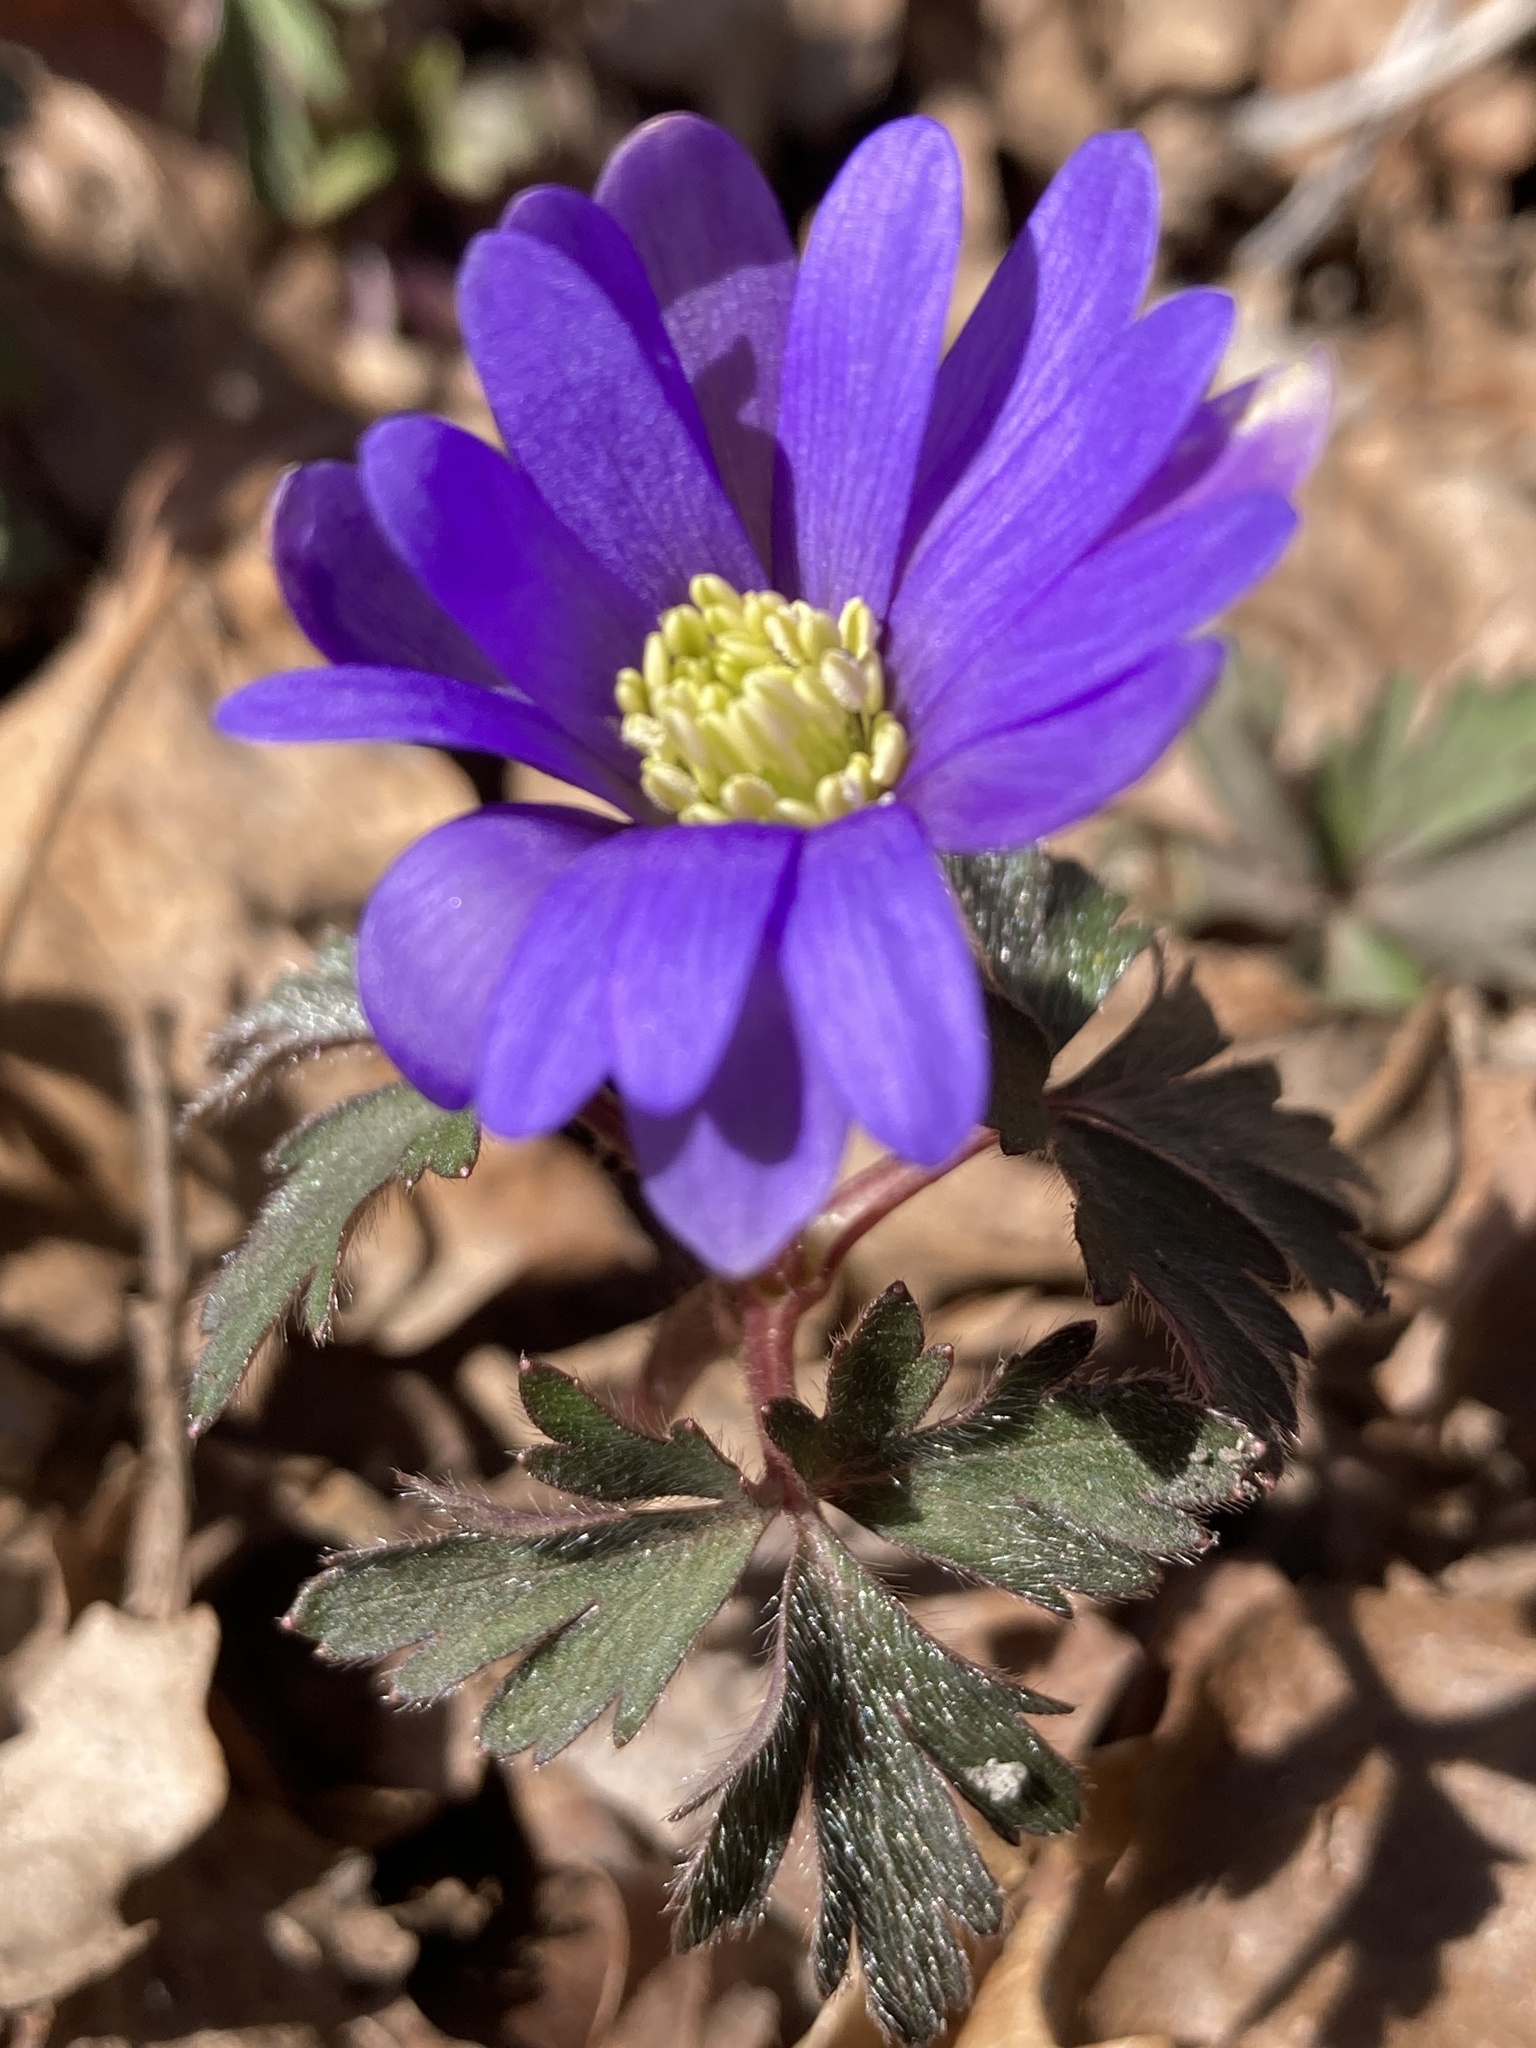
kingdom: Plantae
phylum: Tracheophyta
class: Magnoliopsida
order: Ranunculales
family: Ranunculaceae
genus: Anemone
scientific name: Anemone blanda
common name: Balkan anemone
